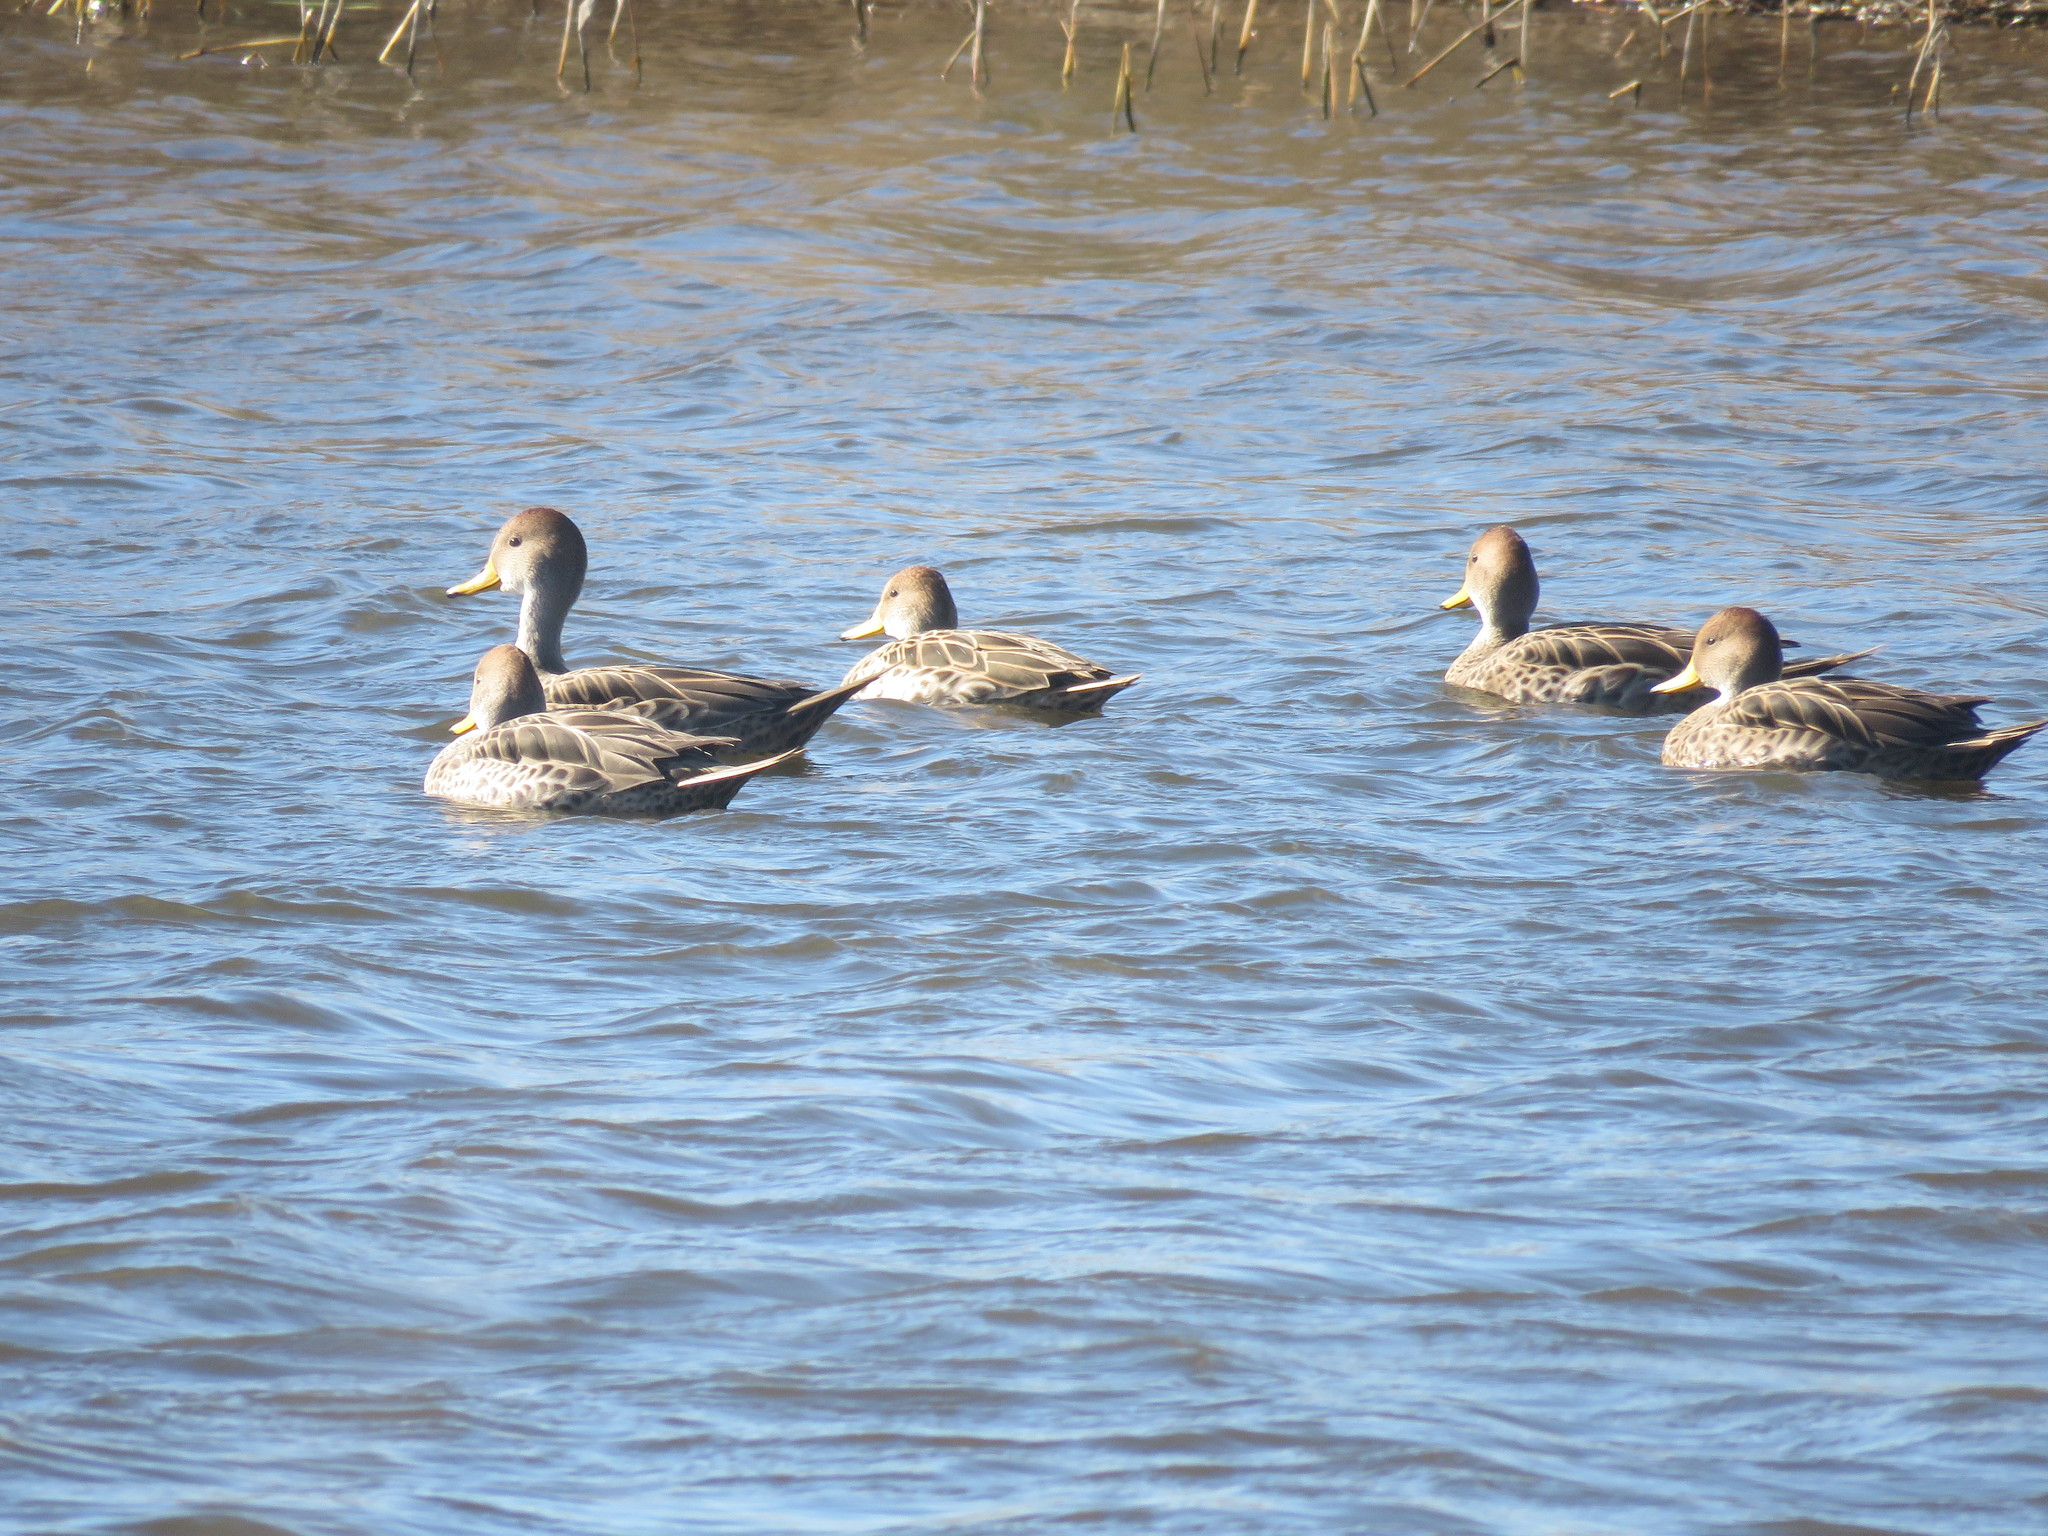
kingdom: Animalia
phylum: Chordata
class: Aves
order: Anseriformes
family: Anatidae
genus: Anas
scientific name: Anas georgica
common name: Yellow-billed pintail
